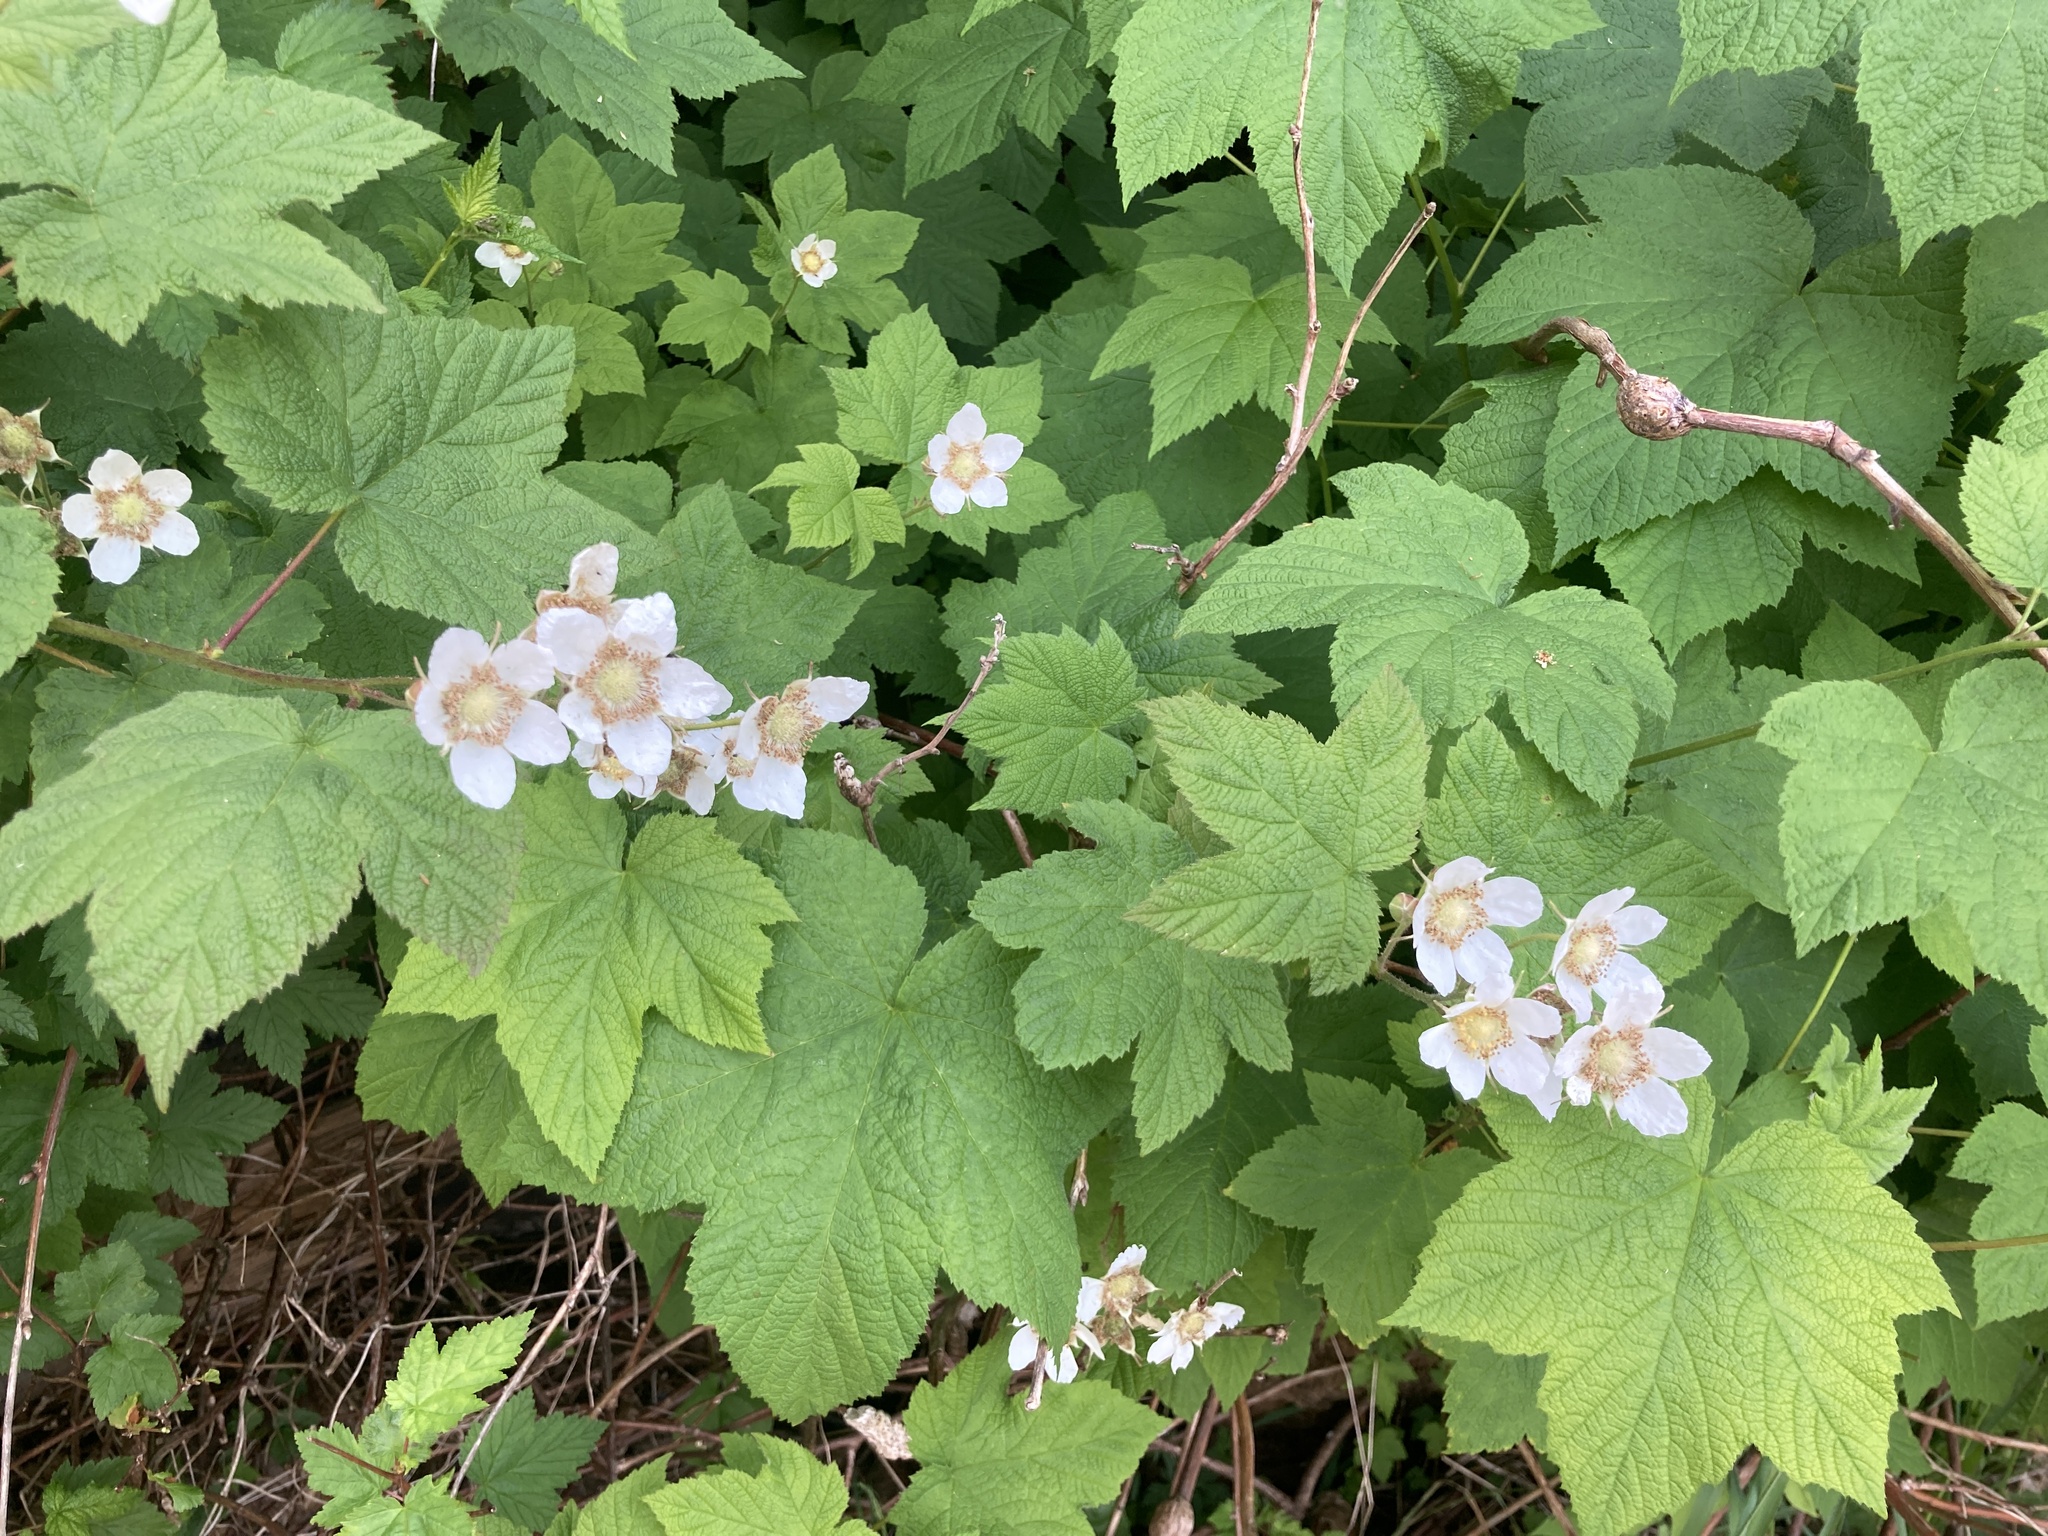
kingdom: Plantae
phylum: Tracheophyta
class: Magnoliopsida
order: Rosales
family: Rosaceae
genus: Rubus
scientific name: Rubus parviflorus
